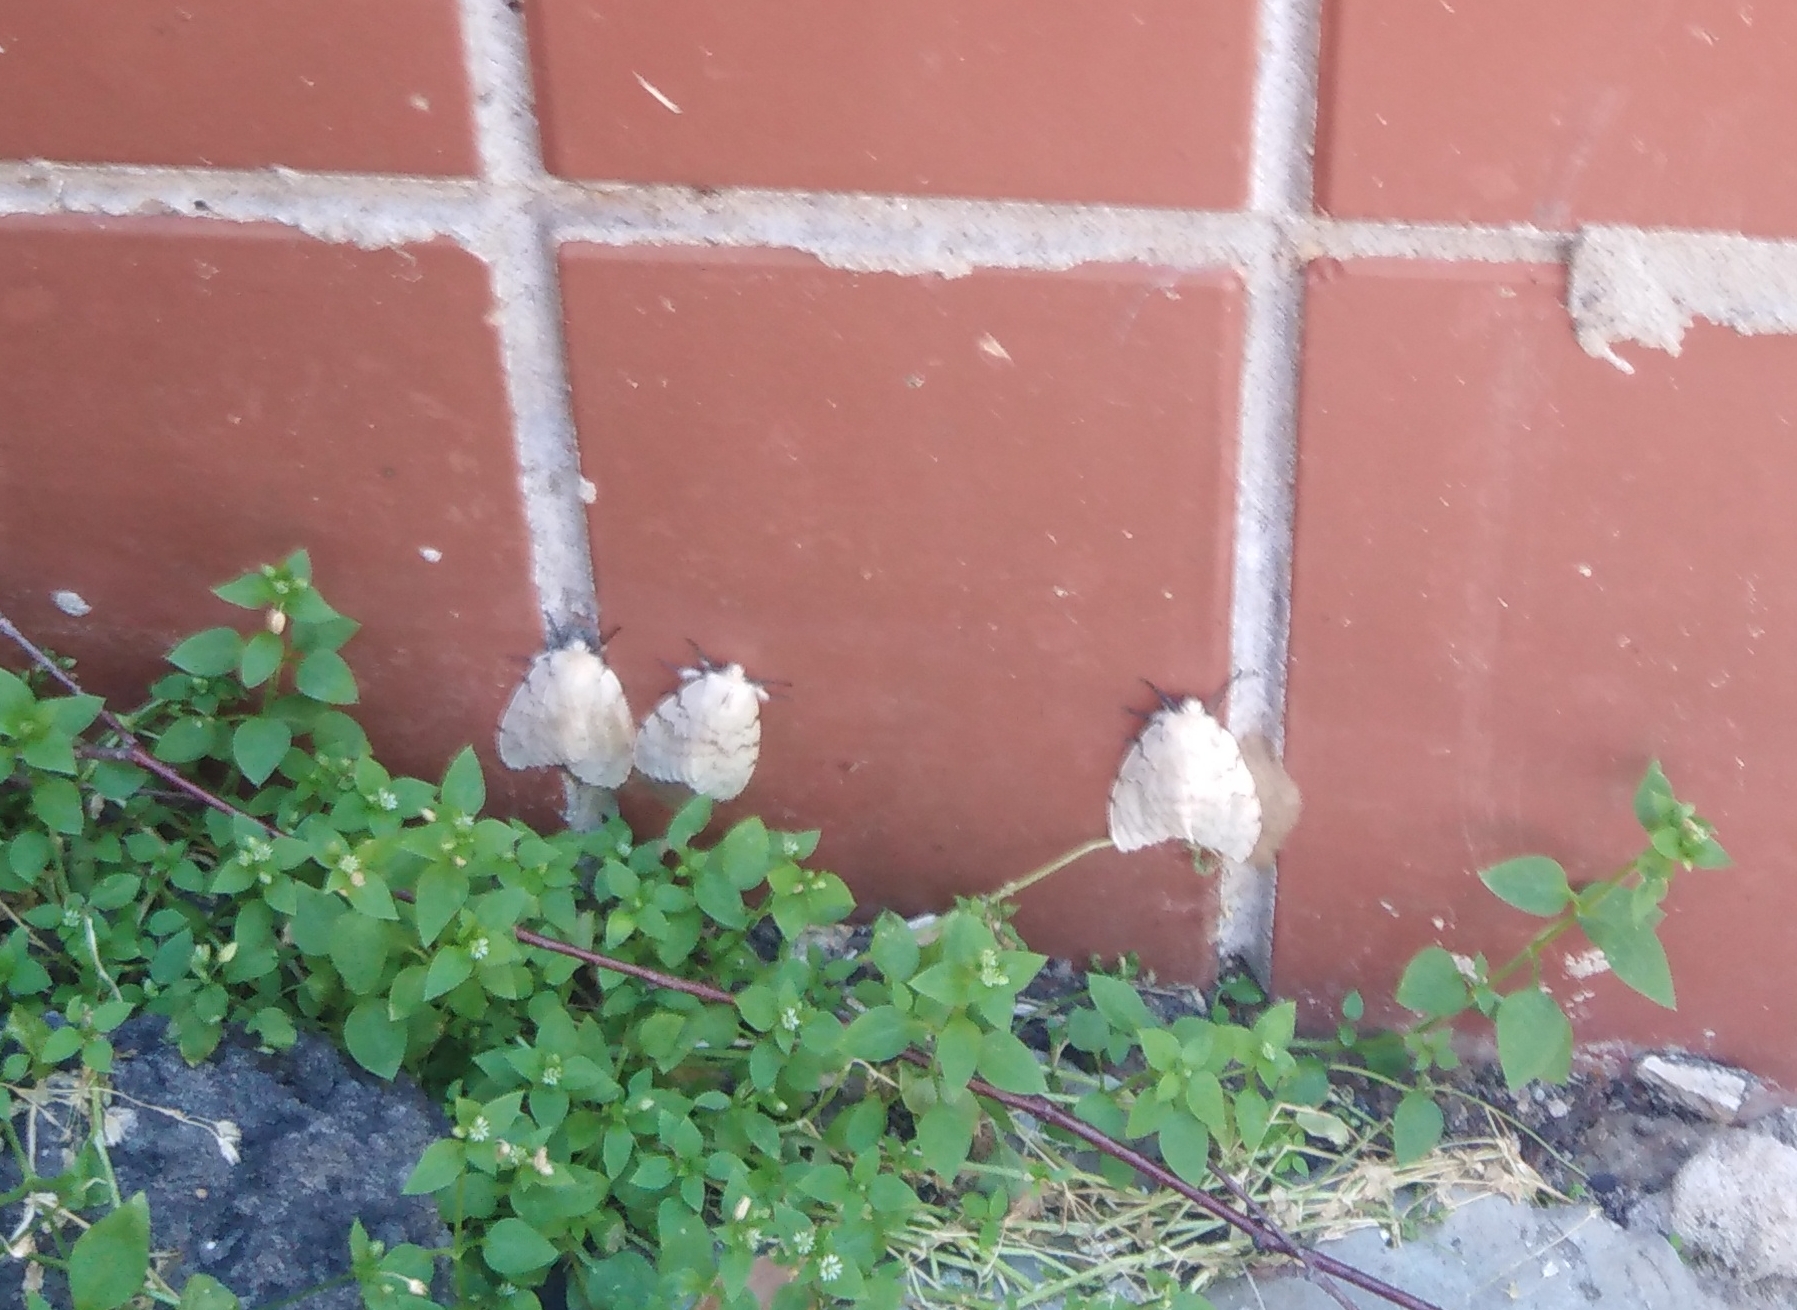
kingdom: Animalia
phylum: Arthropoda
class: Insecta
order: Lepidoptera
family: Erebidae
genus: Lymantria
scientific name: Lymantria dispar
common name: Gypsy moth
